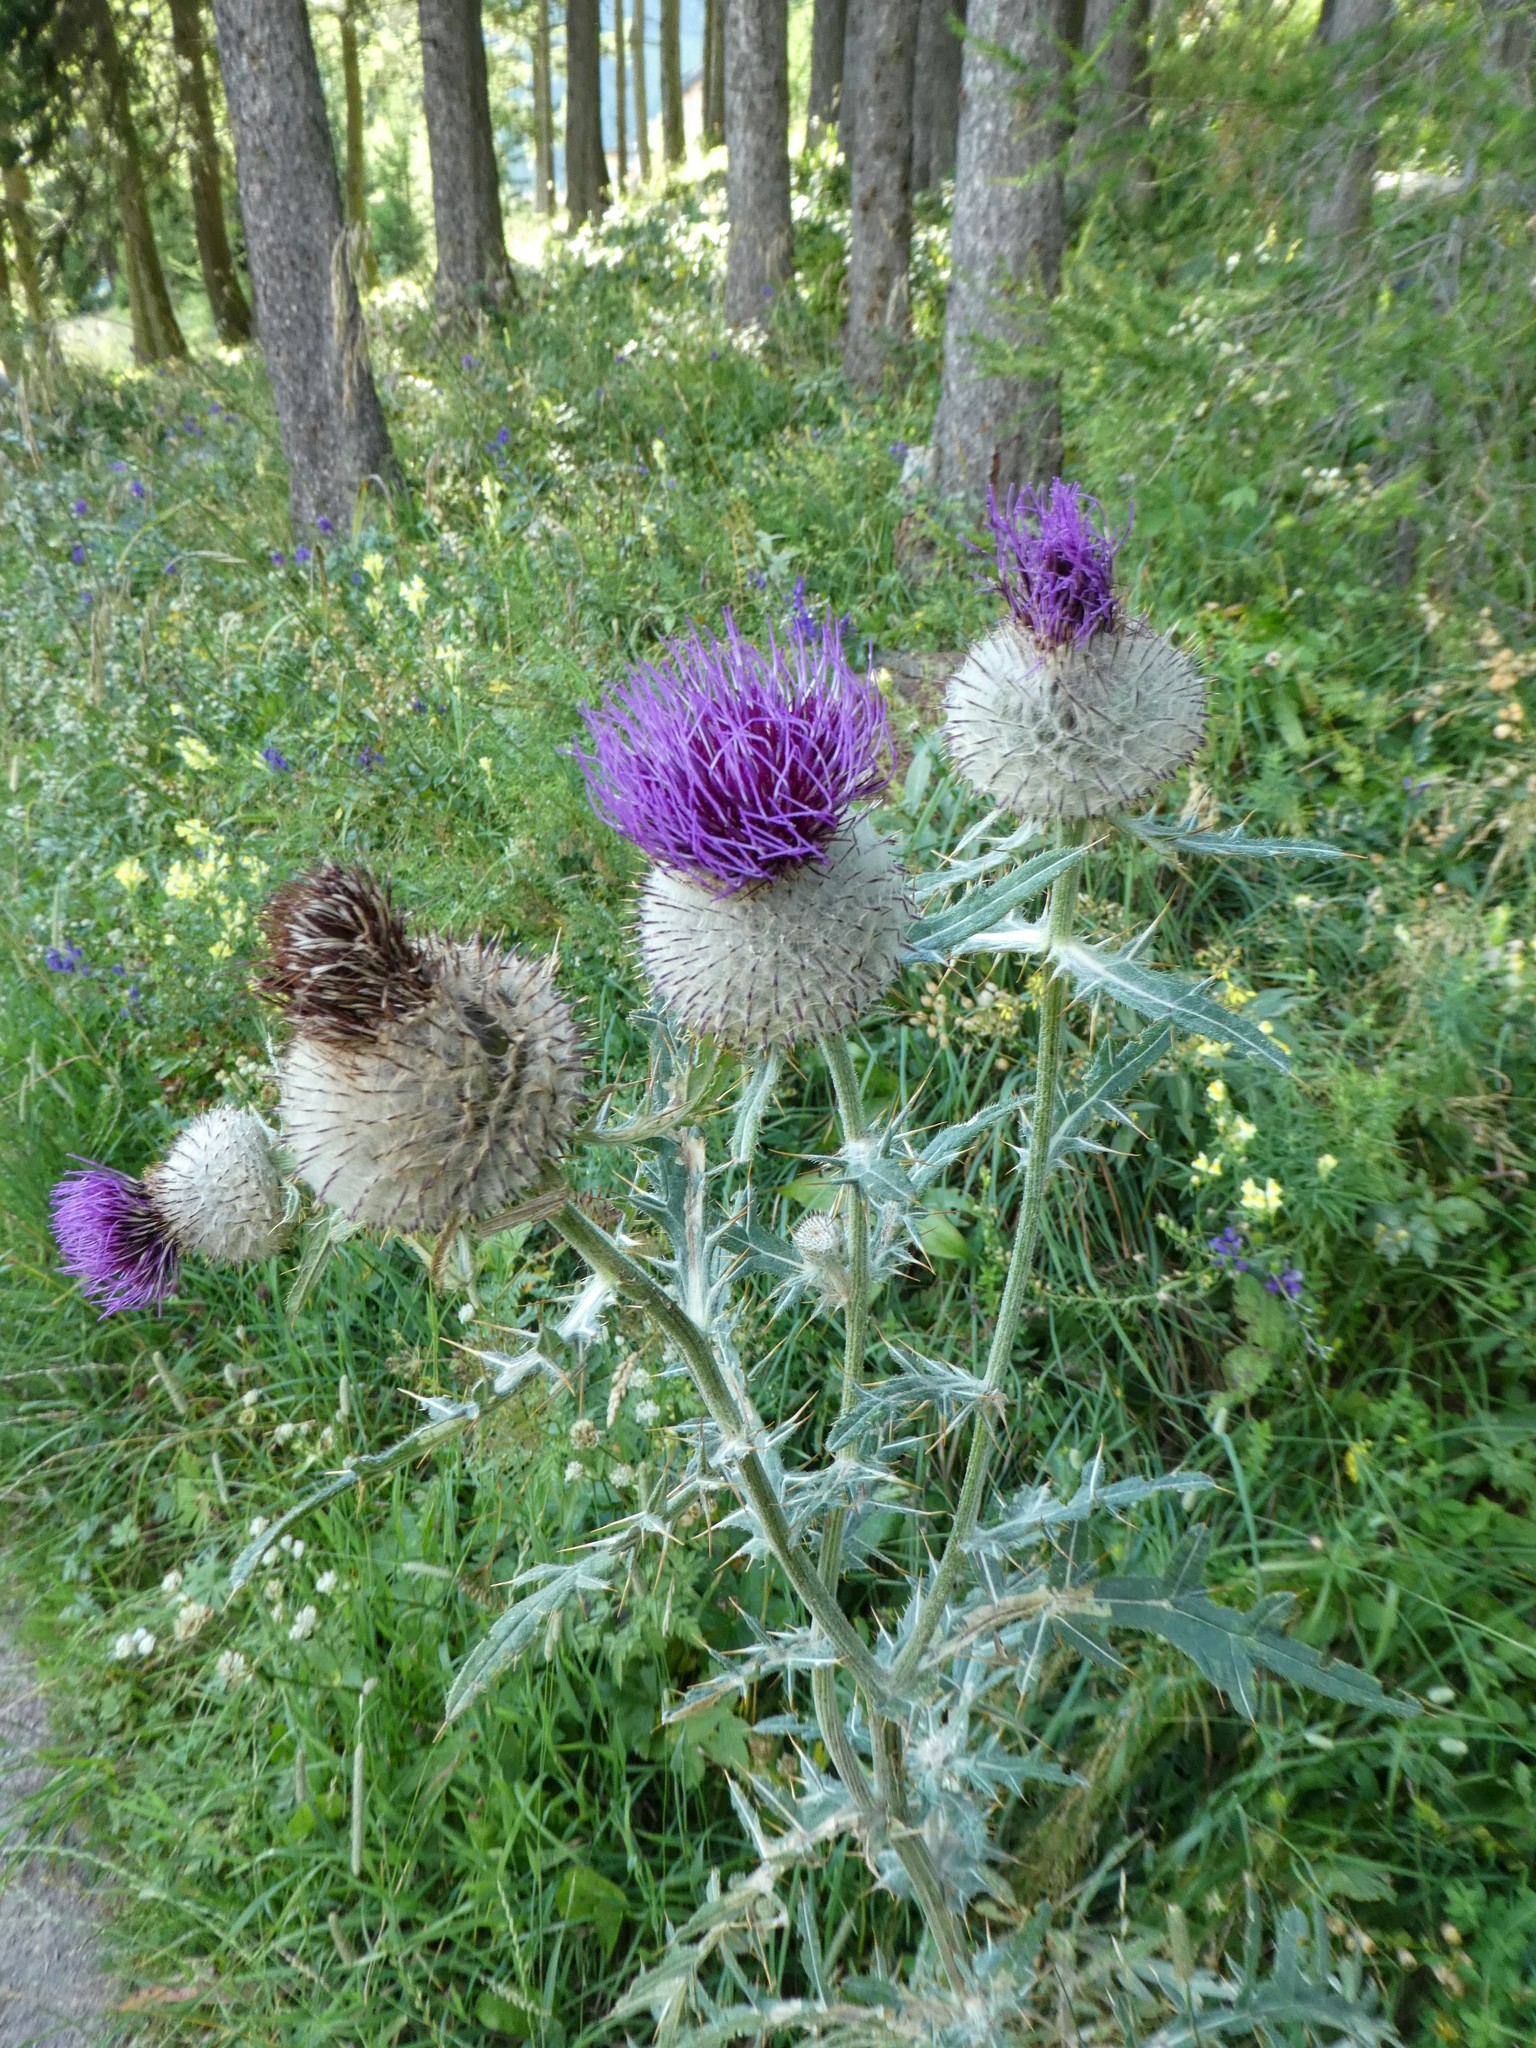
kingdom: Plantae
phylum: Tracheophyta
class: Magnoliopsida
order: Asterales
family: Asteraceae
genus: Lophiolepis
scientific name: Lophiolepis eriophora
